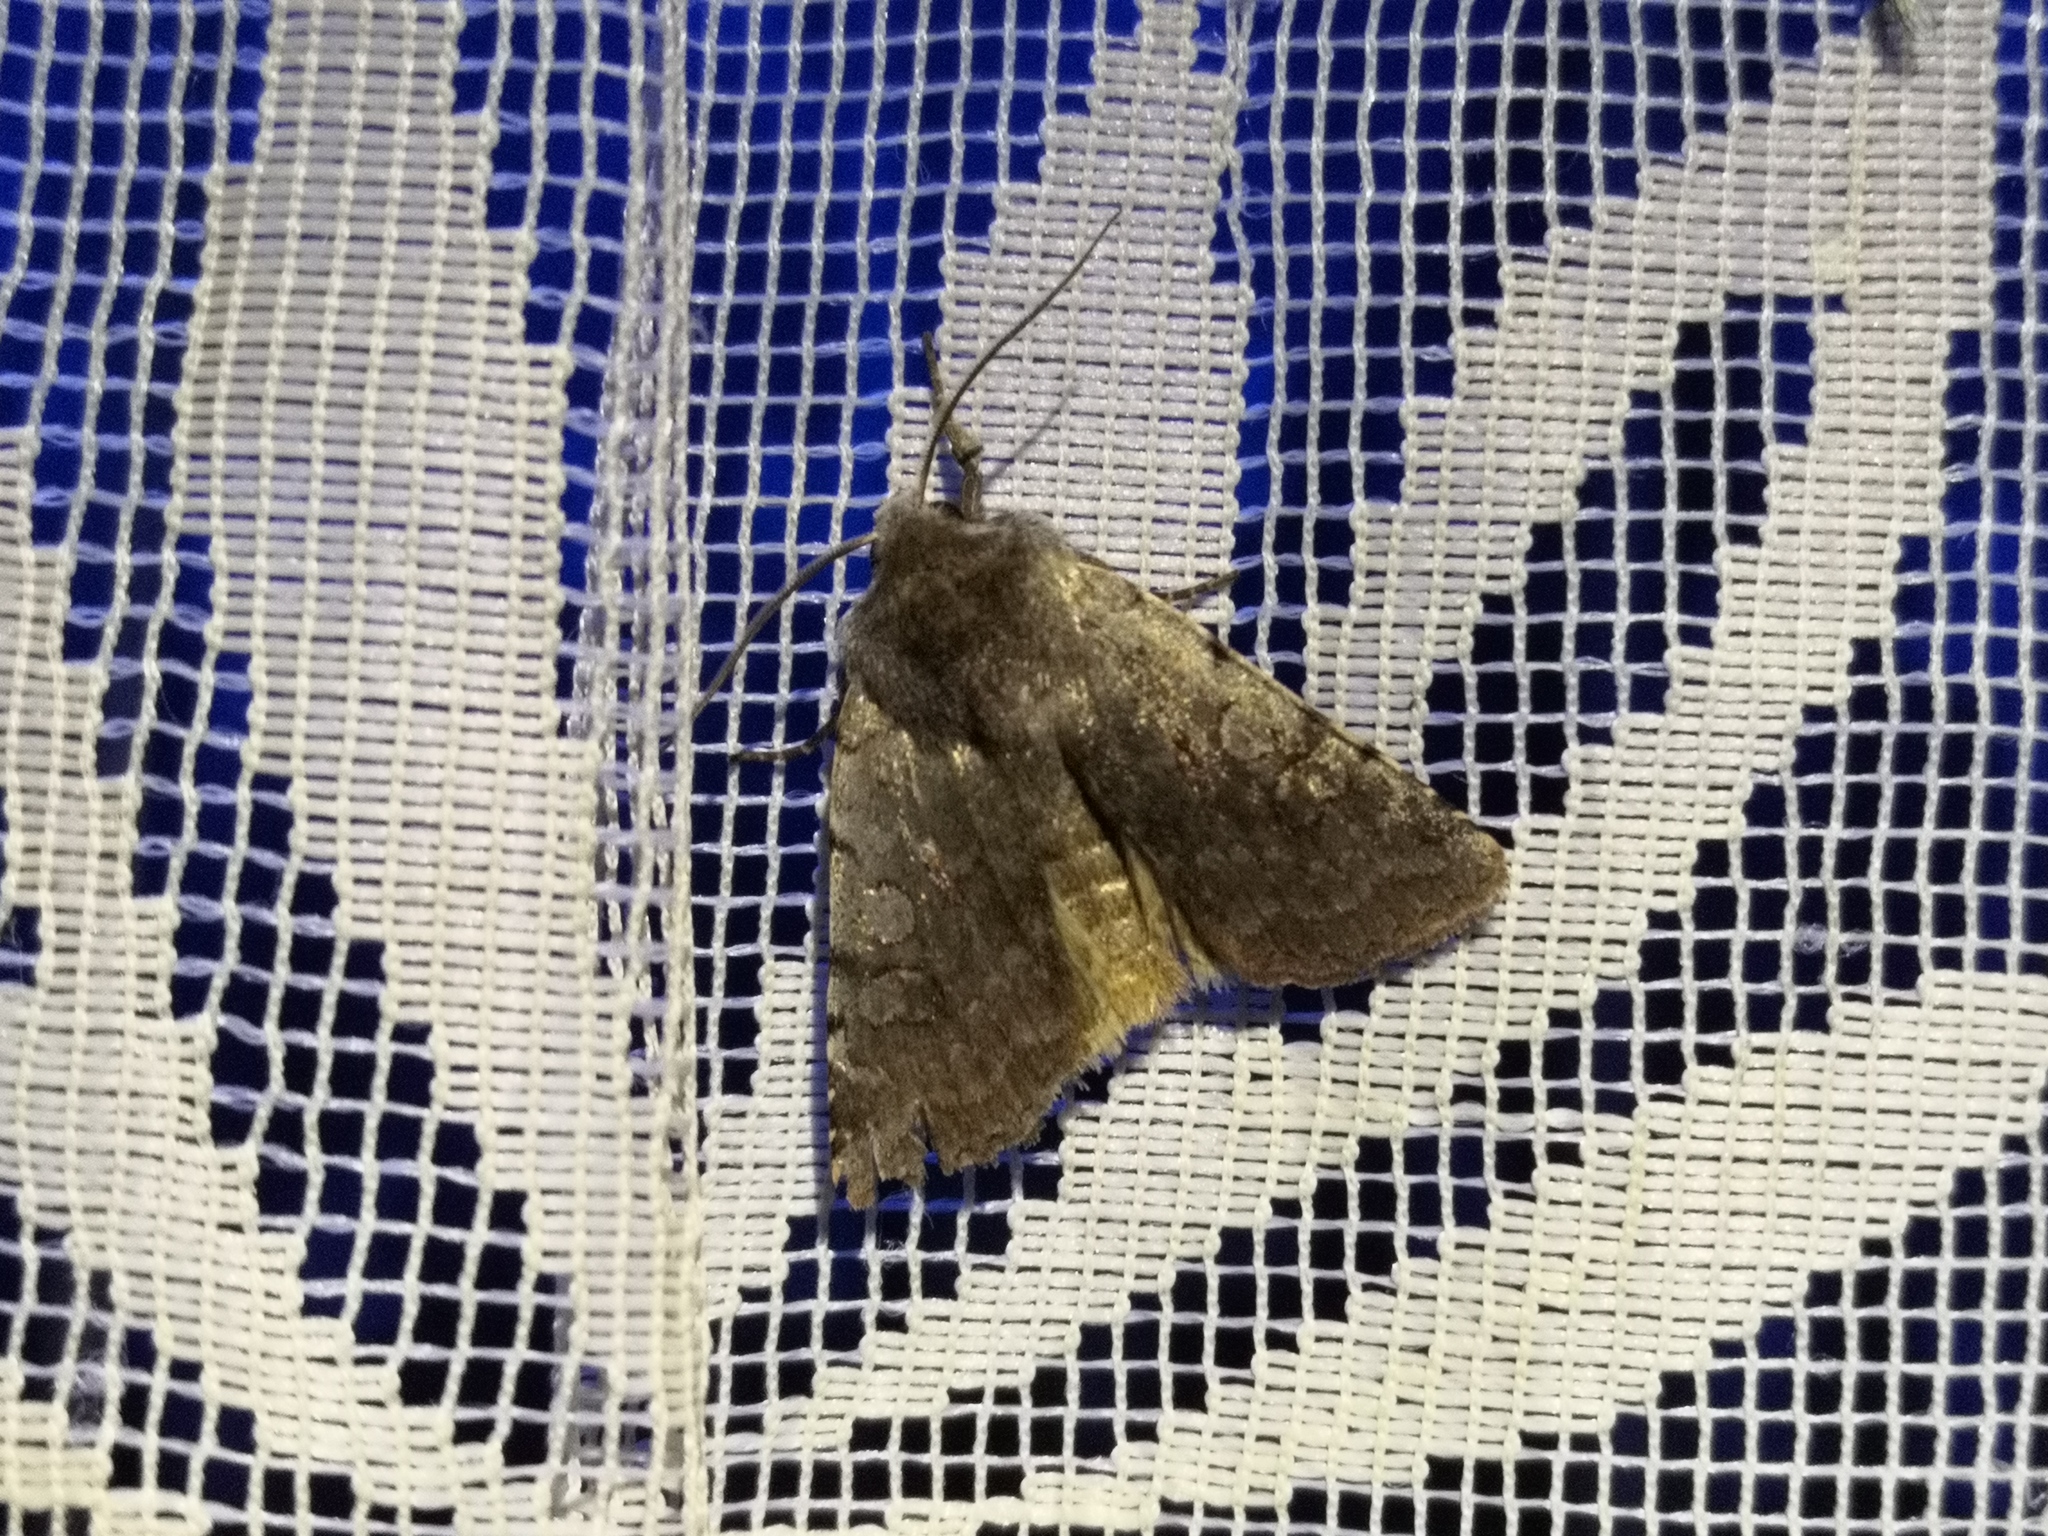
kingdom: Animalia
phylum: Arthropoda
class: Insecta
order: Lepidoptera
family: Noctuidae
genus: Cerastis
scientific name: Cerastis rubricosa
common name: Red chestnut
